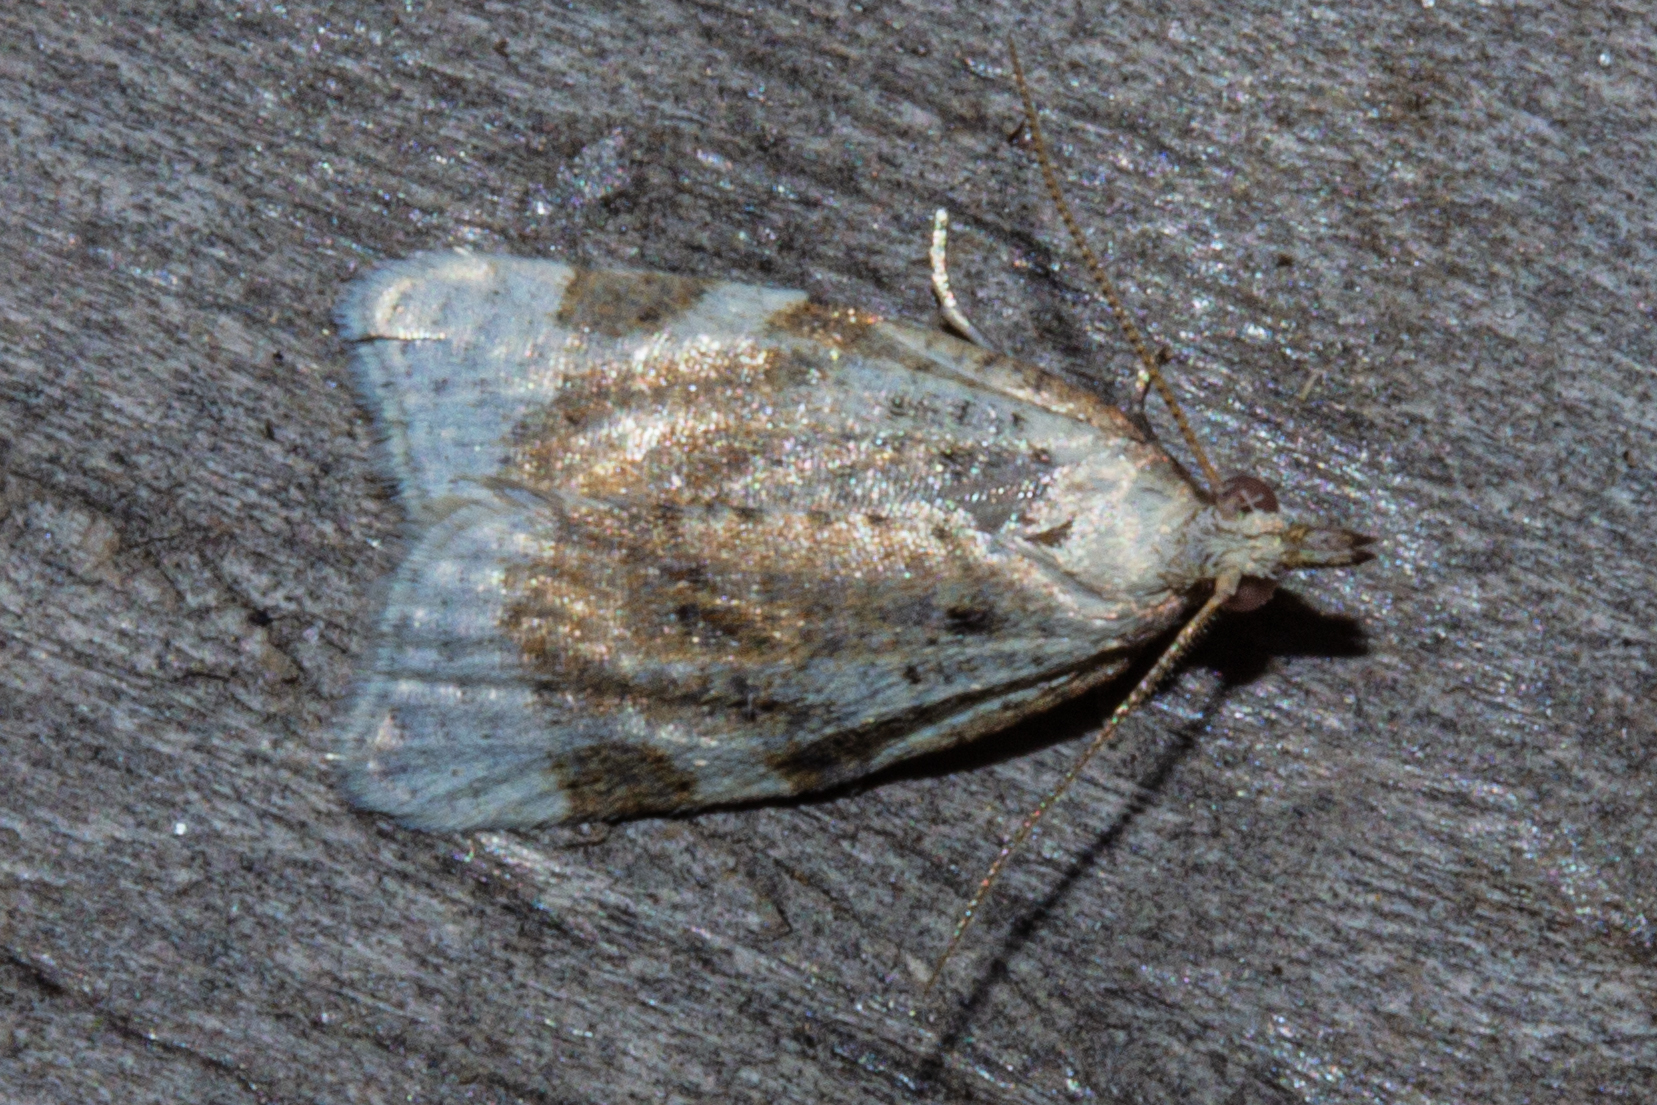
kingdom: Animalia
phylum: Arthropoda
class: Insecta
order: Lepidoptera
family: Tortricidae
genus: Catamacta
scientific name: Catamacta gavisana
